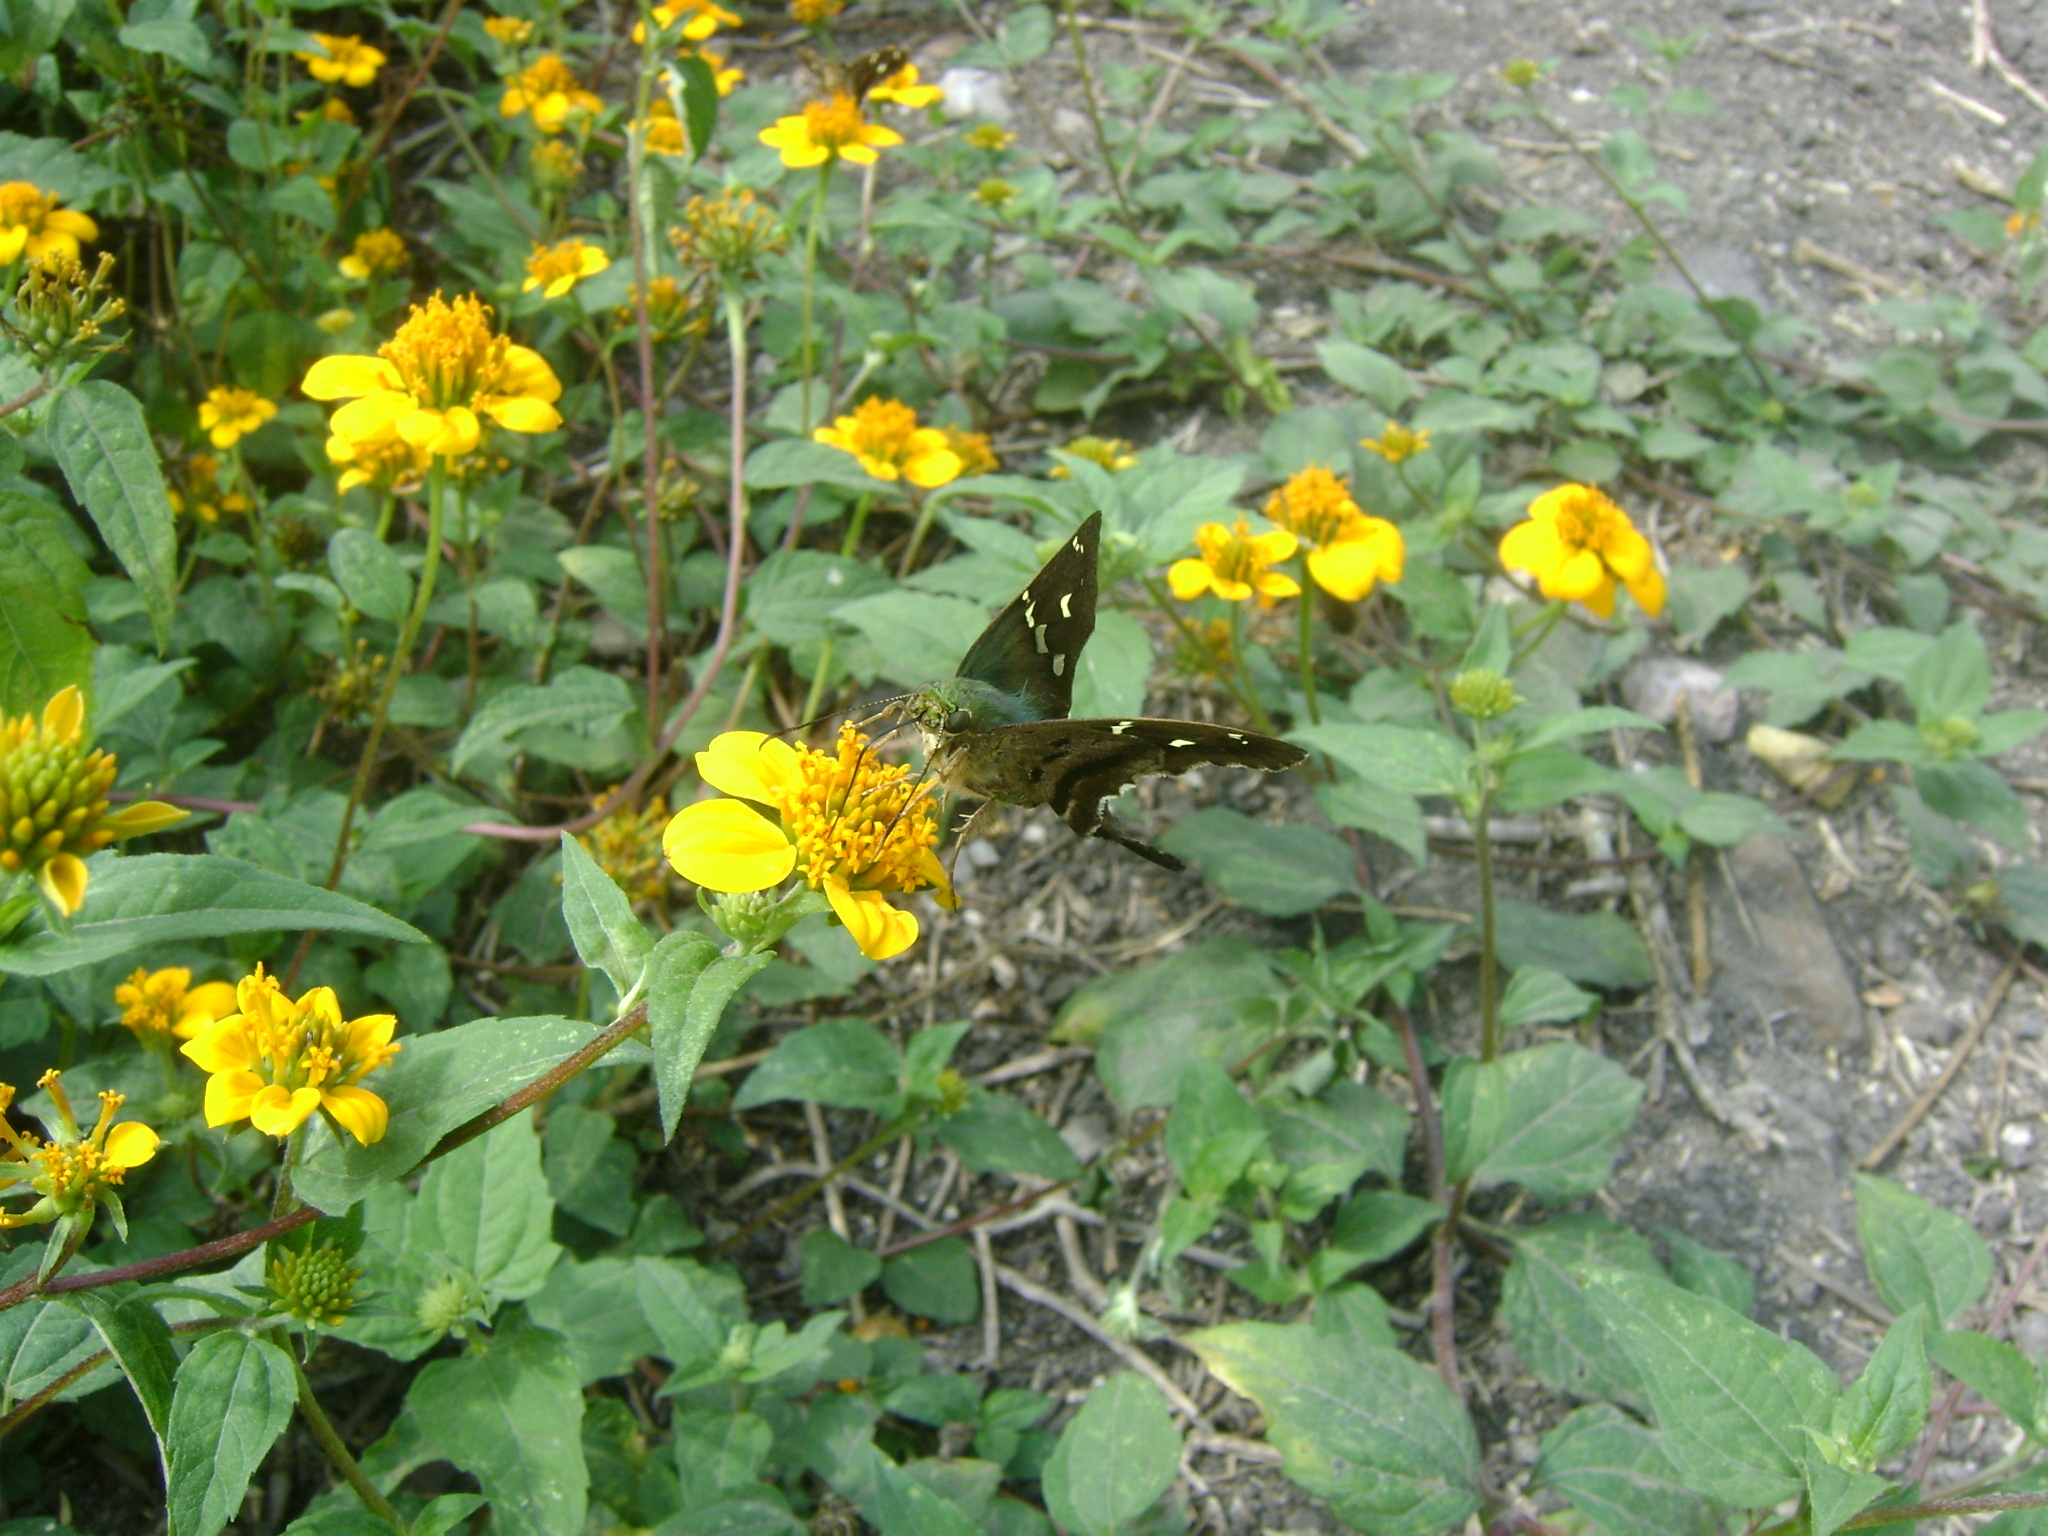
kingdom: Animalia
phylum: Arthropoda
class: Insecta
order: Lepidoptera
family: Hesperiidae
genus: Urbanus
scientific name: Urbanus esmeraldus
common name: Esmeralda longtail
